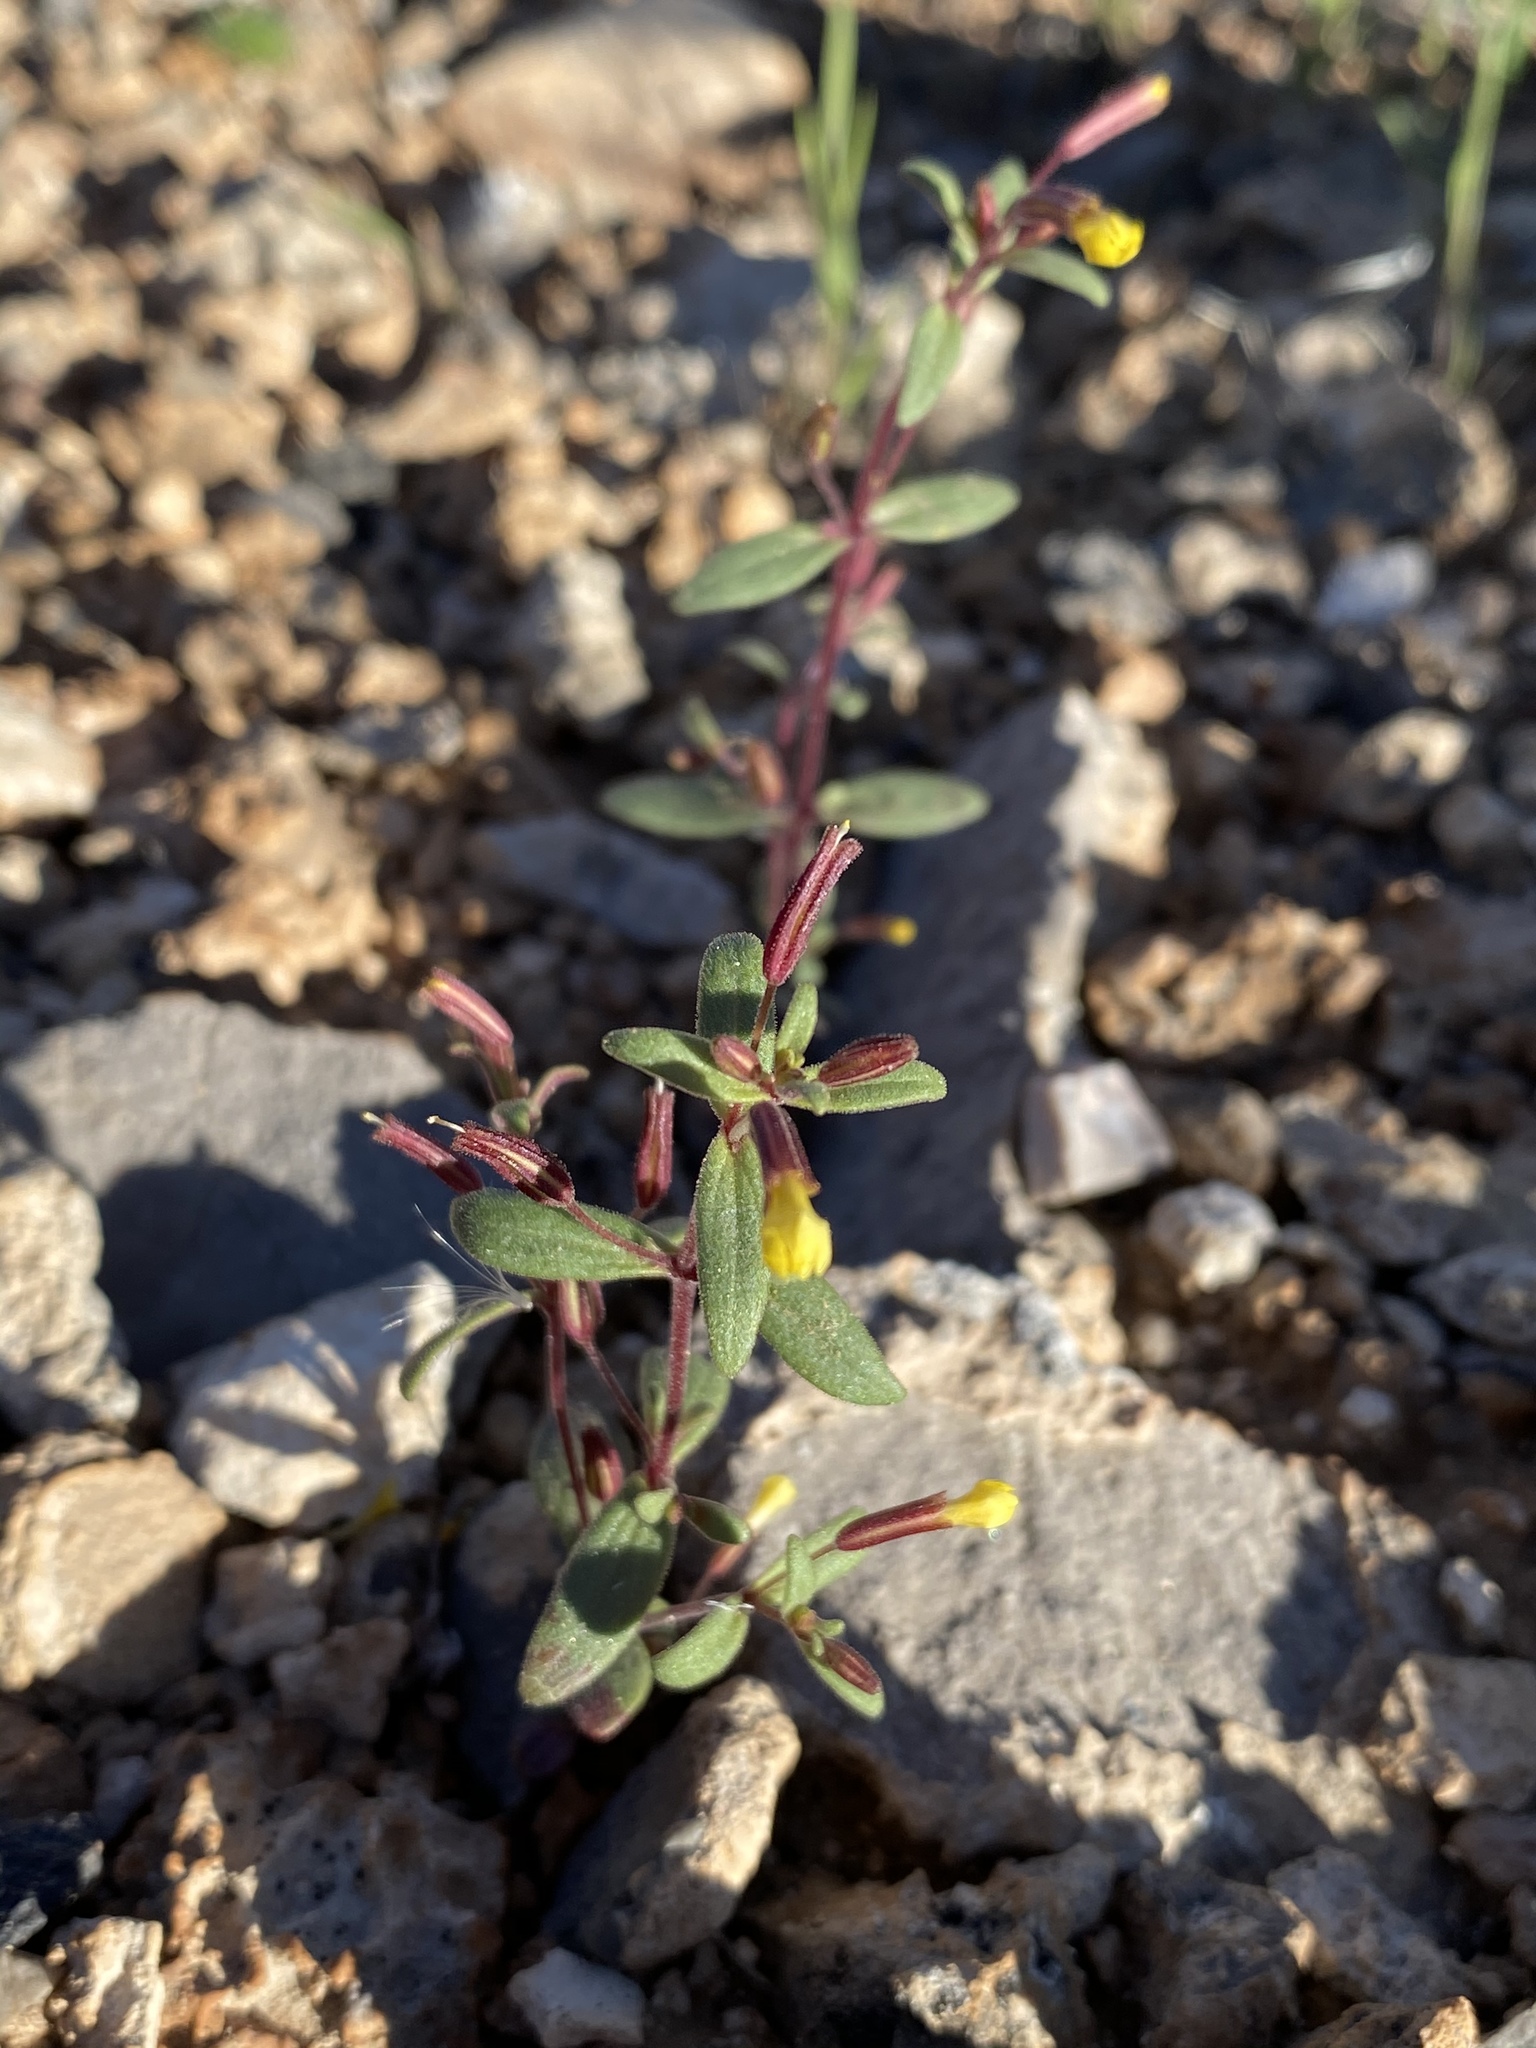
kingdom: Plantae
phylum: Tracheophyta
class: Magnoliopsida
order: Lamiales
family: Phrymaceae
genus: Erythranthe
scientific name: Erythranthe rubella
